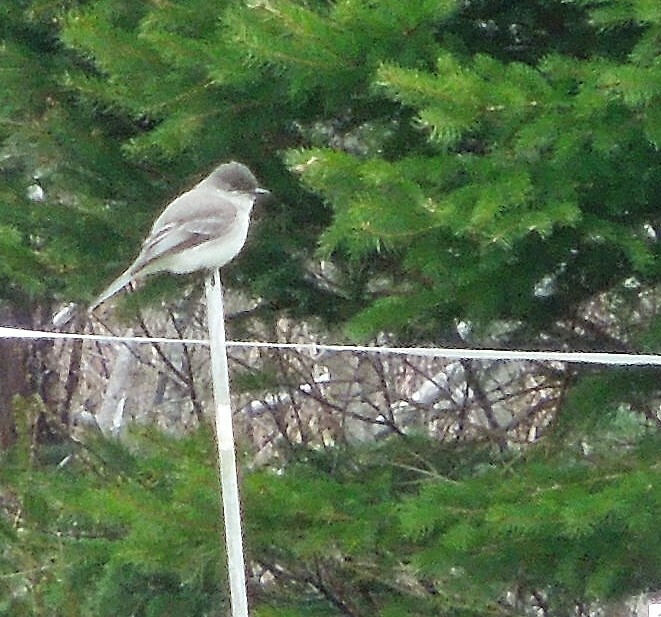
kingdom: Animalia
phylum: Chordata
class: Aves
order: Passeriformes
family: Tyrannidae
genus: Sayornis
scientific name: Sayornis phoebe
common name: Eastern phoebe
